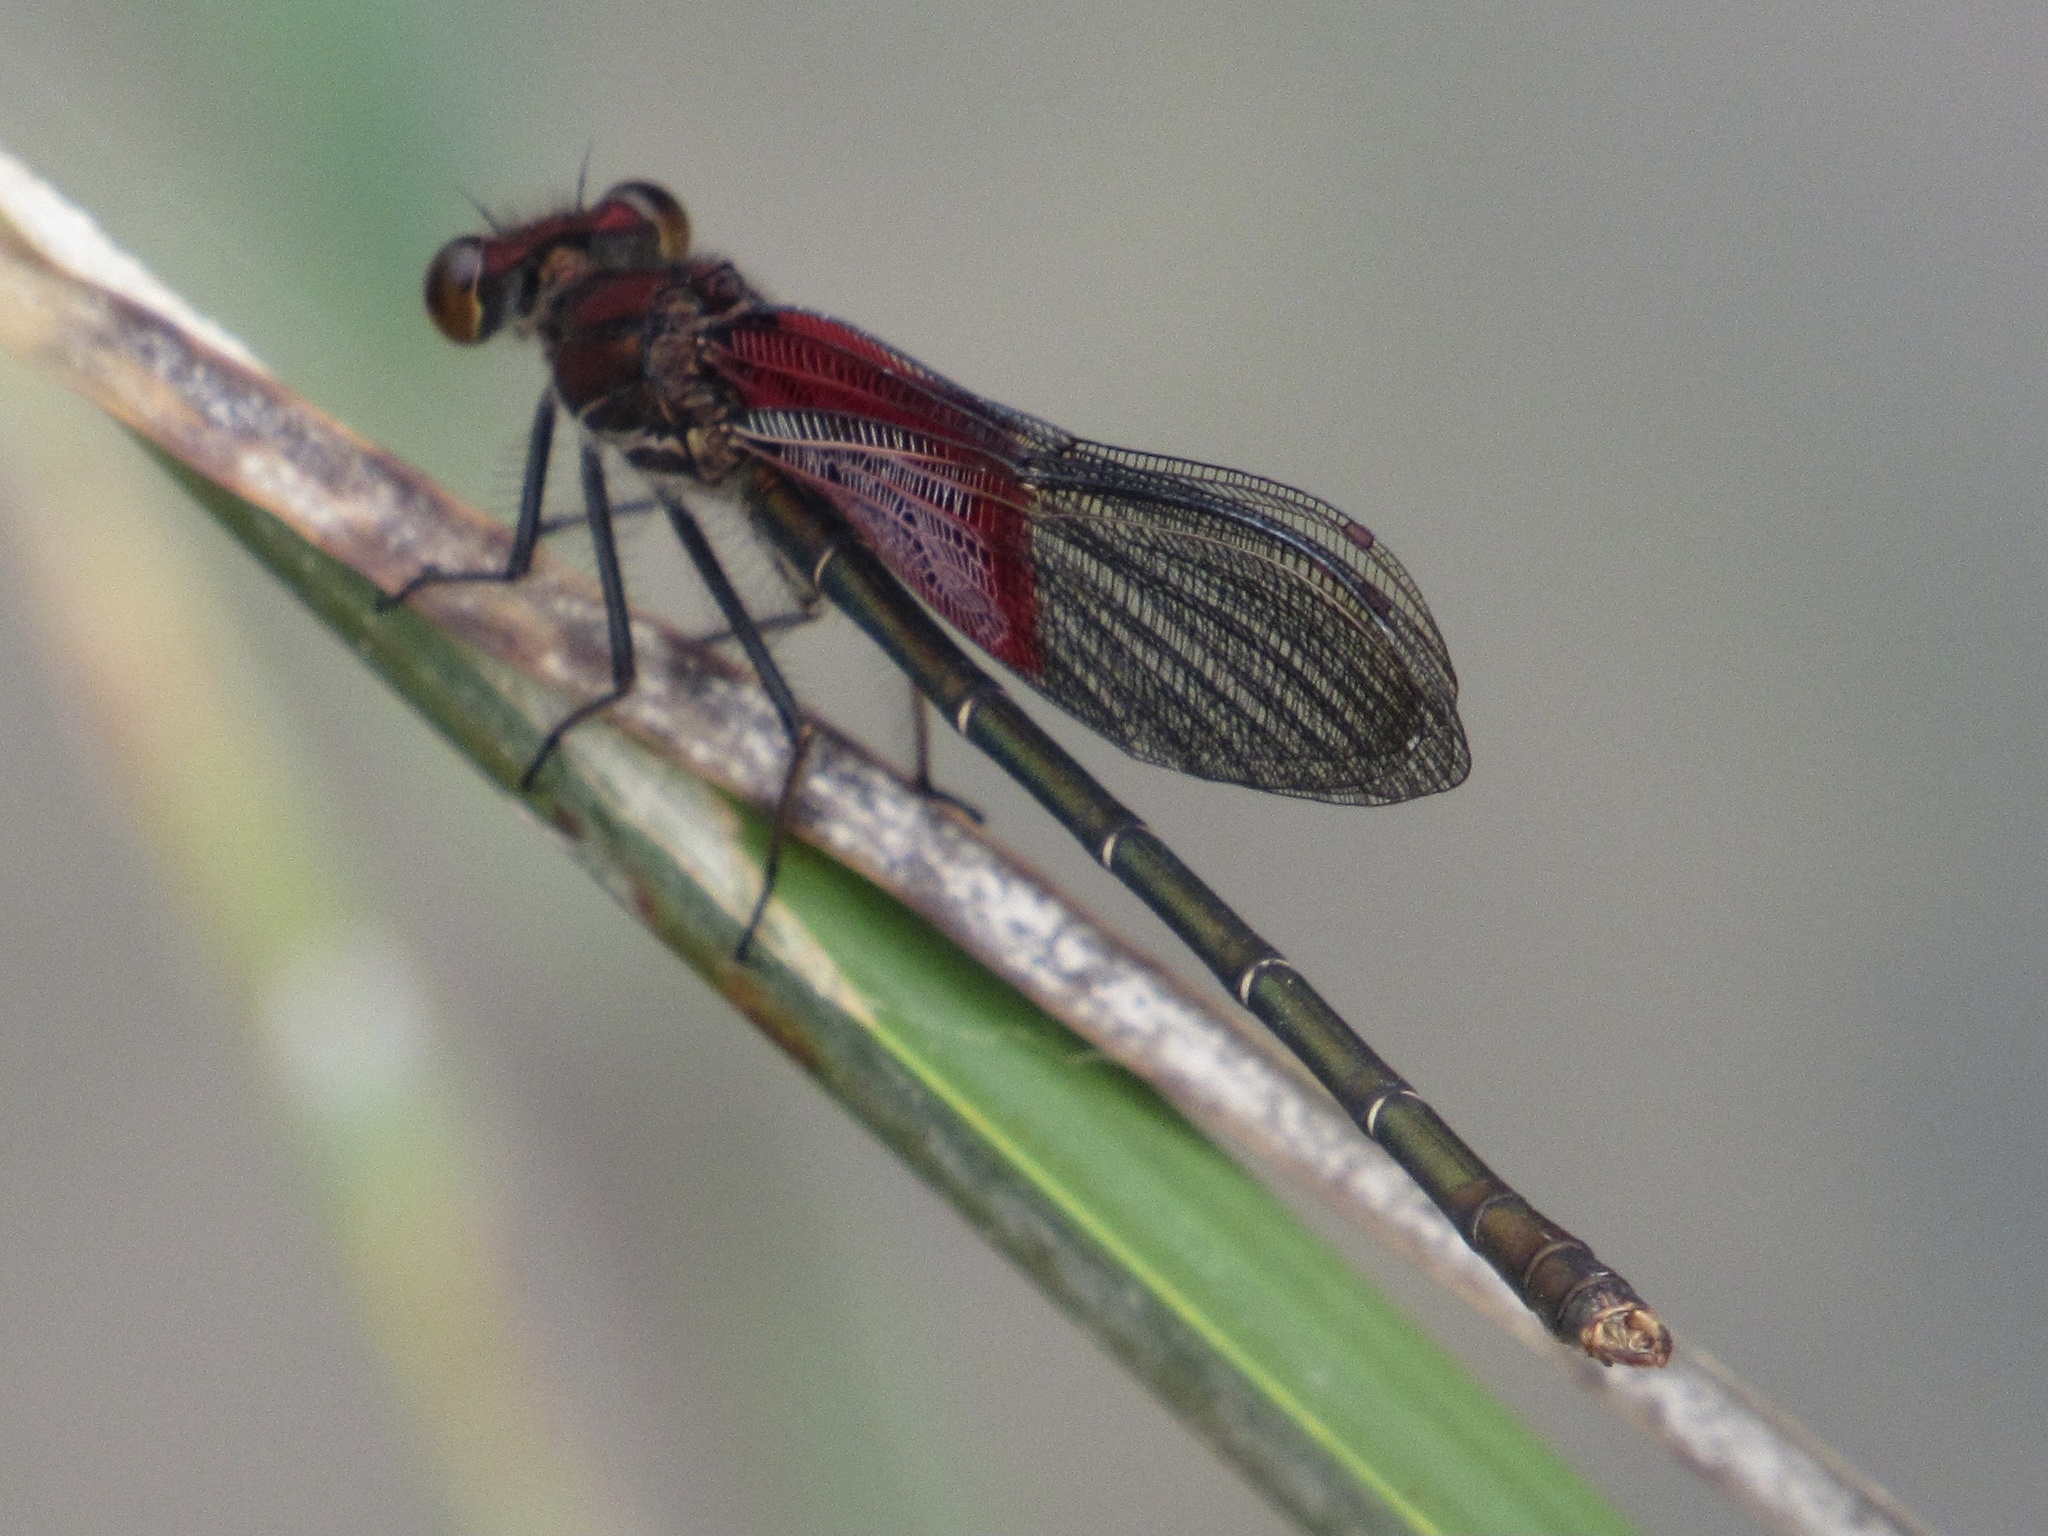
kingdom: Animalia
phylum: Arthropoda
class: Insecta
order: Odonata
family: Calopterygidae
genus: Hetaerina
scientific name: Hetaerina americana
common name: American rubyspot
